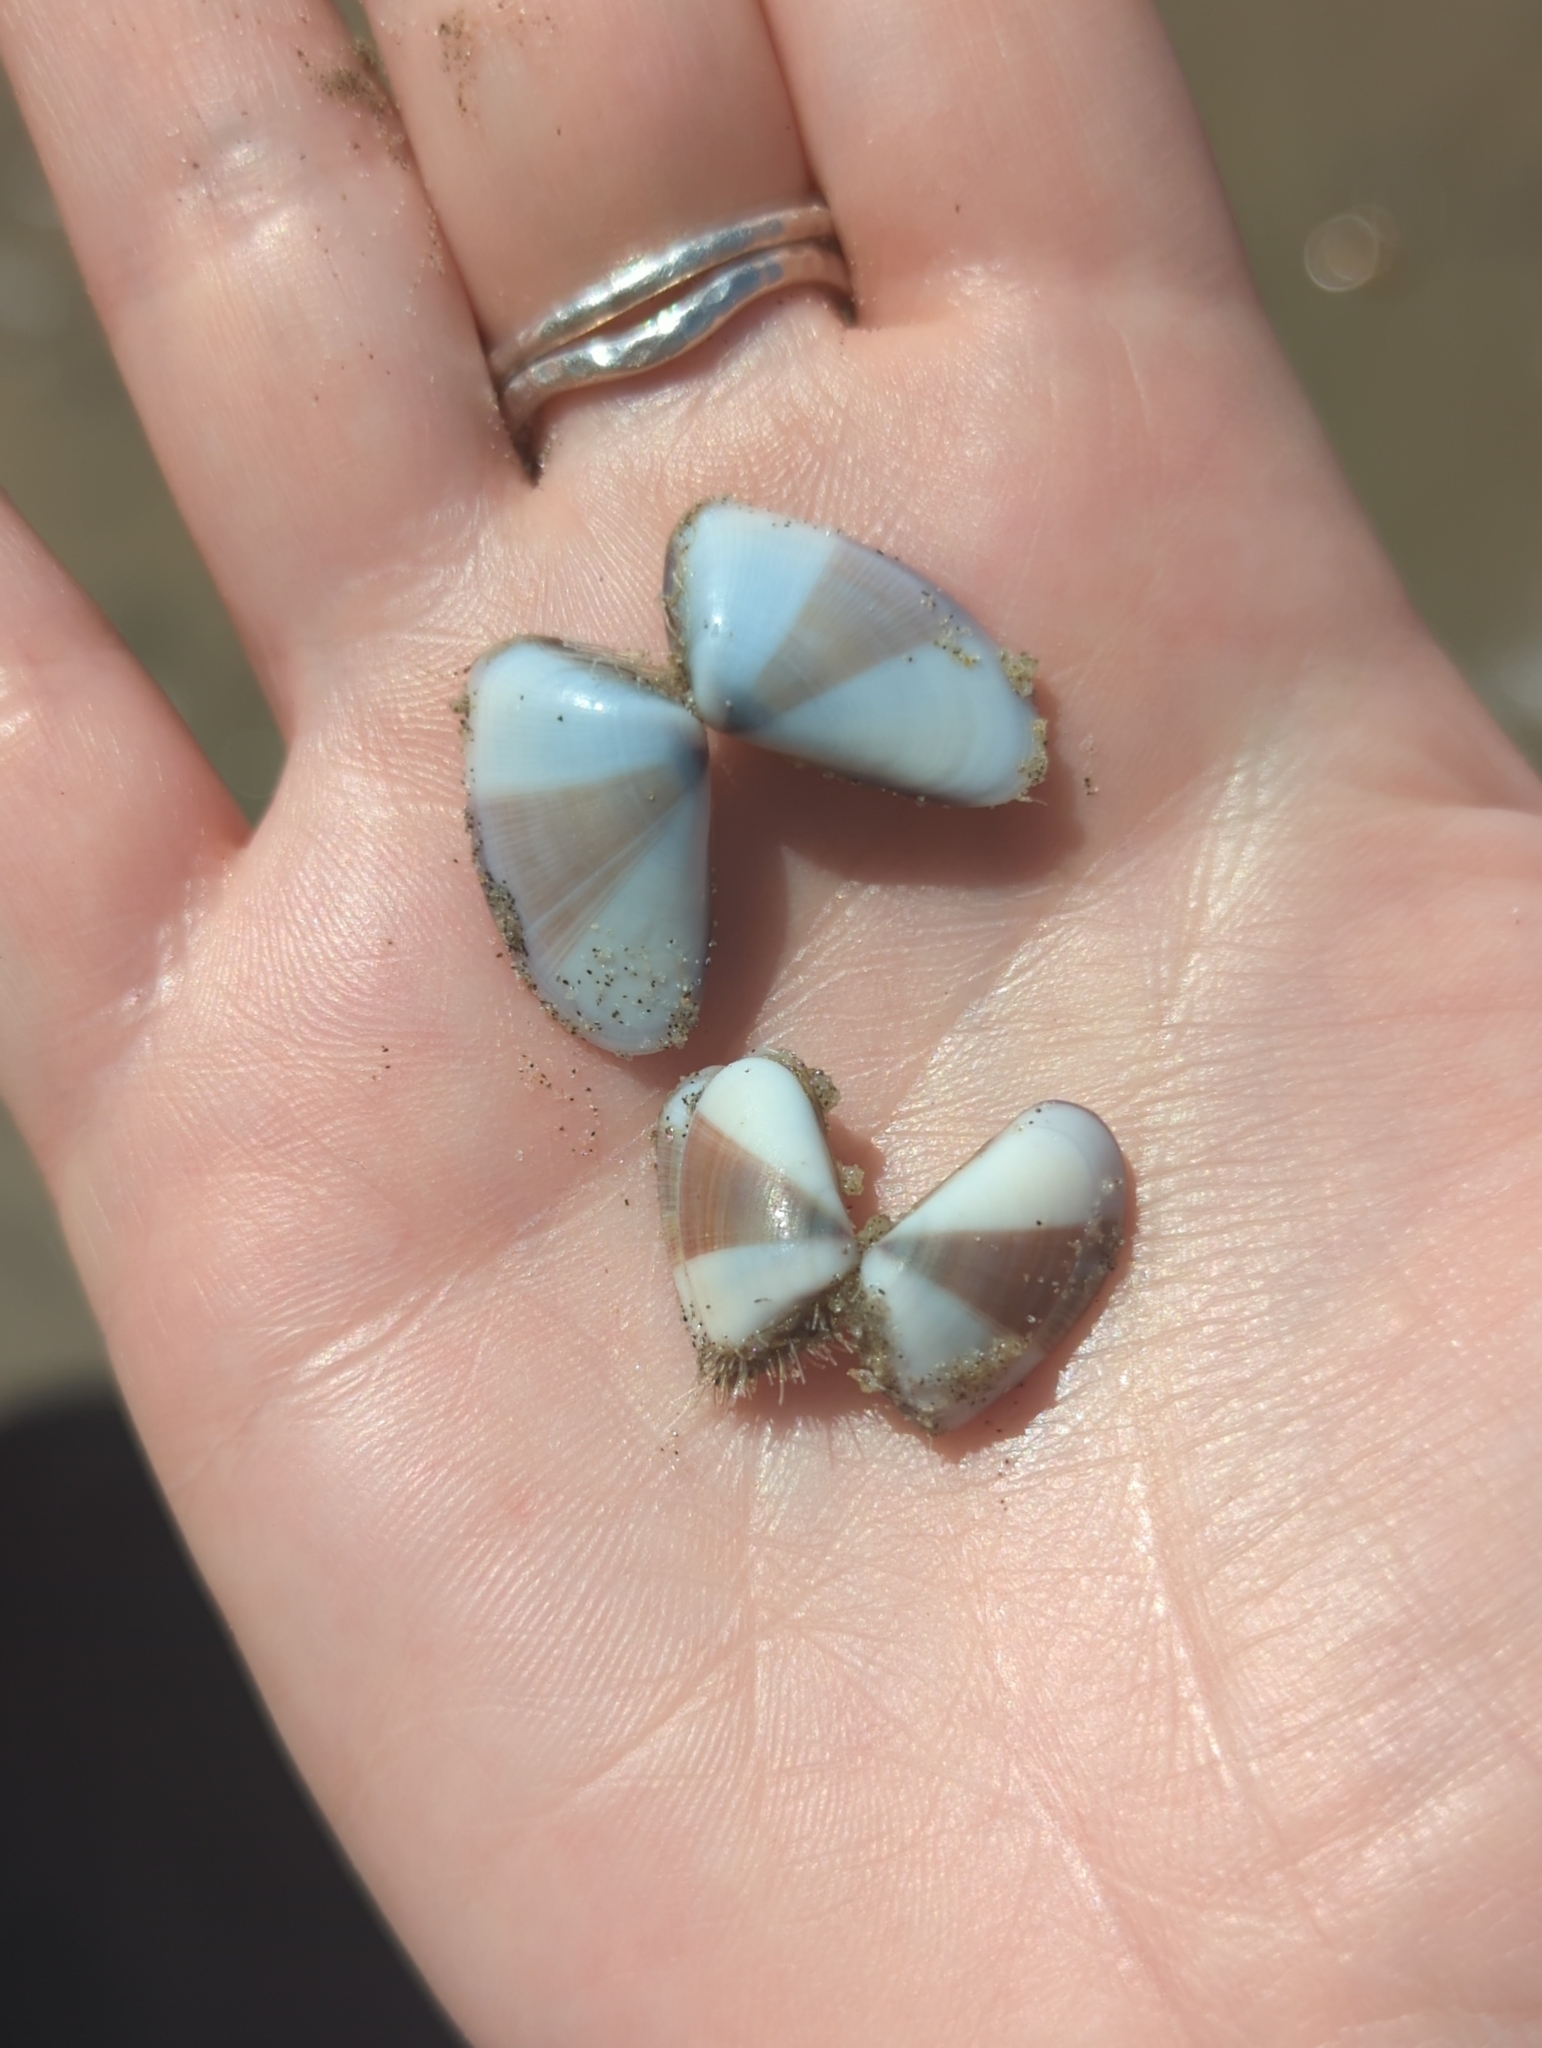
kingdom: Animalia
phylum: Mollusca
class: Bivalvia
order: Cardiida
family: Donacidae
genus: Donax
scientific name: Donax gouldii
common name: Gould beanclam
